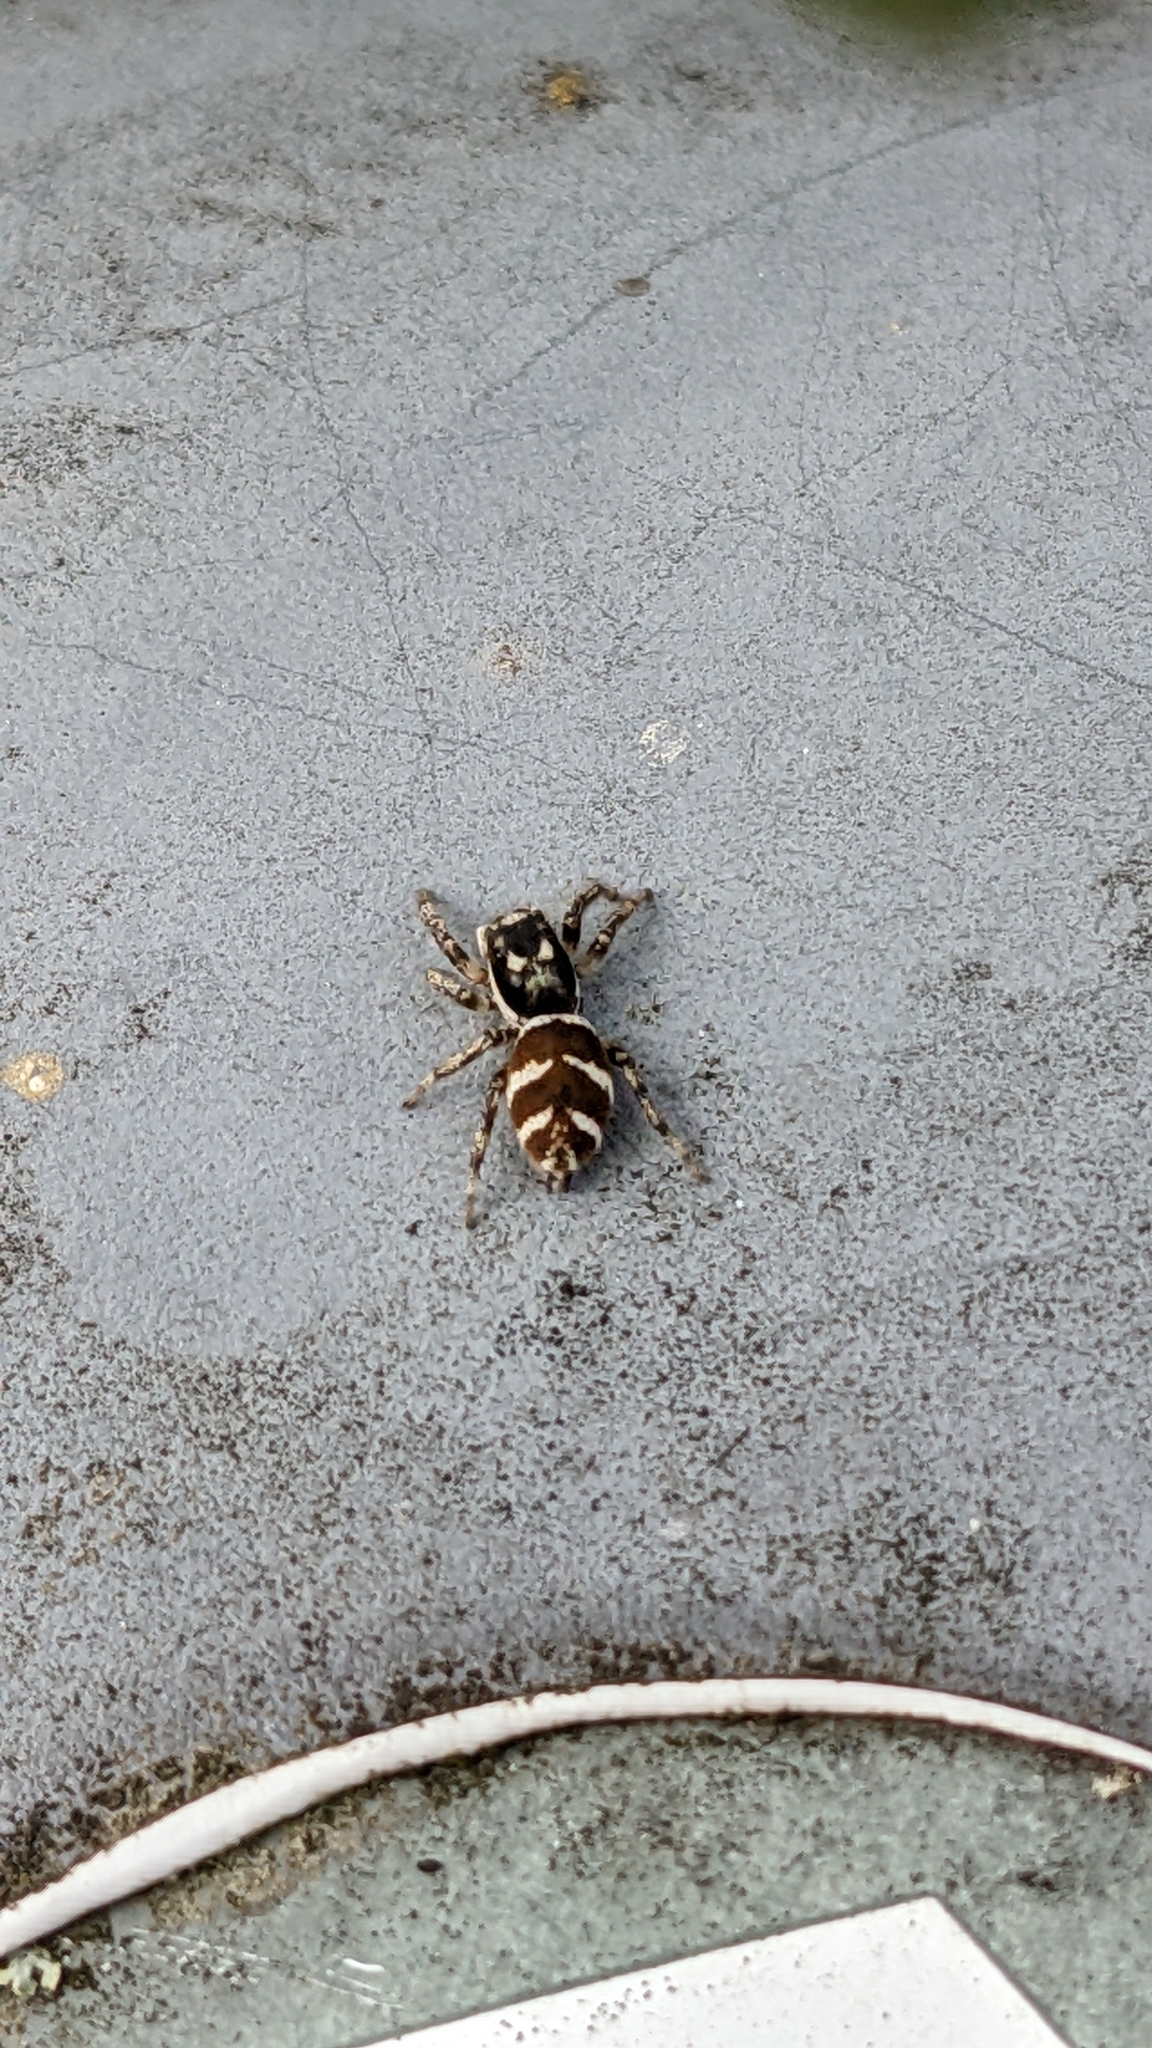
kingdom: Animalia
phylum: Arthropoda
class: Arachnida
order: Araneae
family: Salticidae
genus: Salticus
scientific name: Salticus scenicus
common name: Zebra jumper
